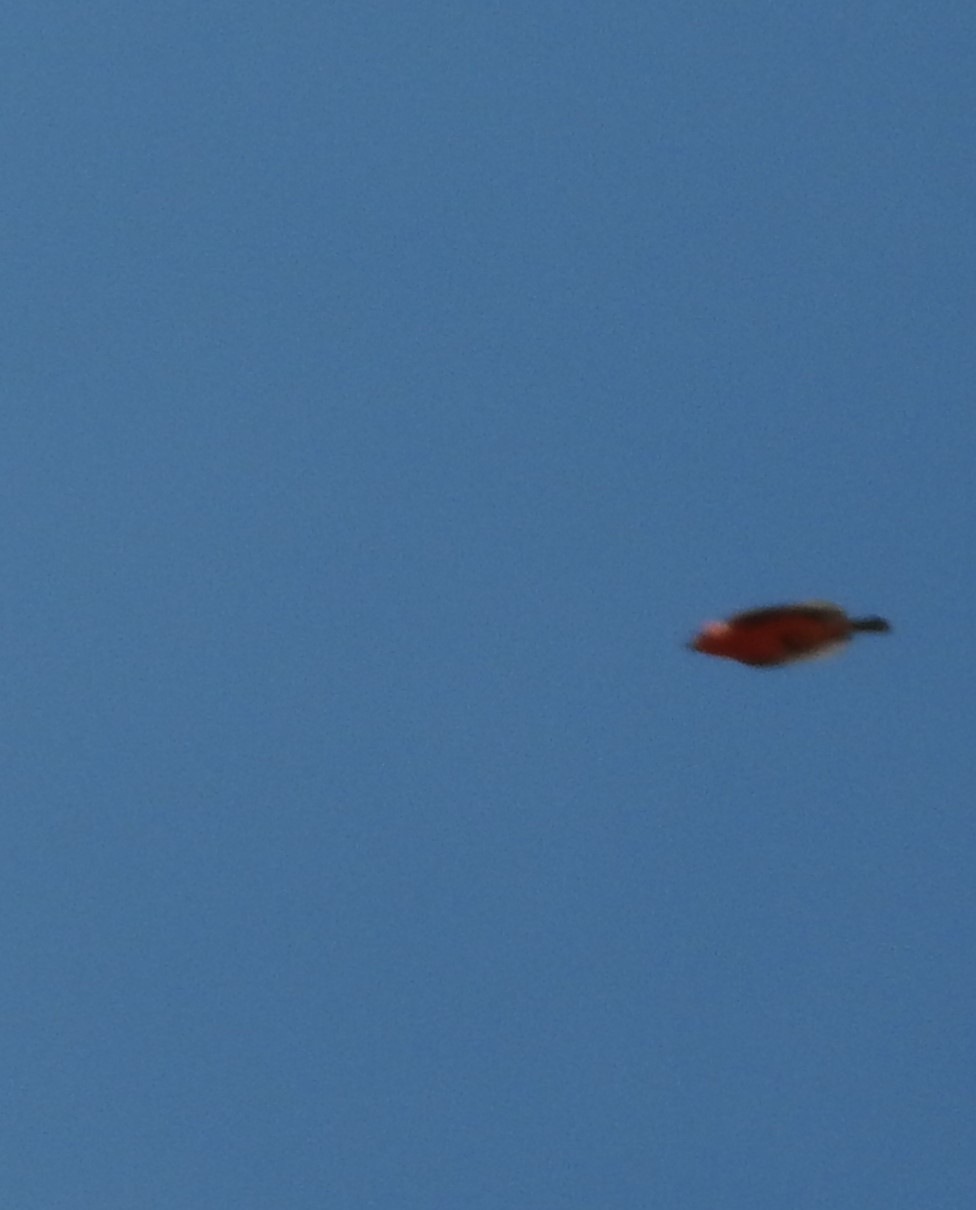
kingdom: Animalia
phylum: Chordata
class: Aves
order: Passeriformes
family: Tyrannidae
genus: Pyrocephalus
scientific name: Pyrocephalus rubinus
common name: Vermilion flycatcher
